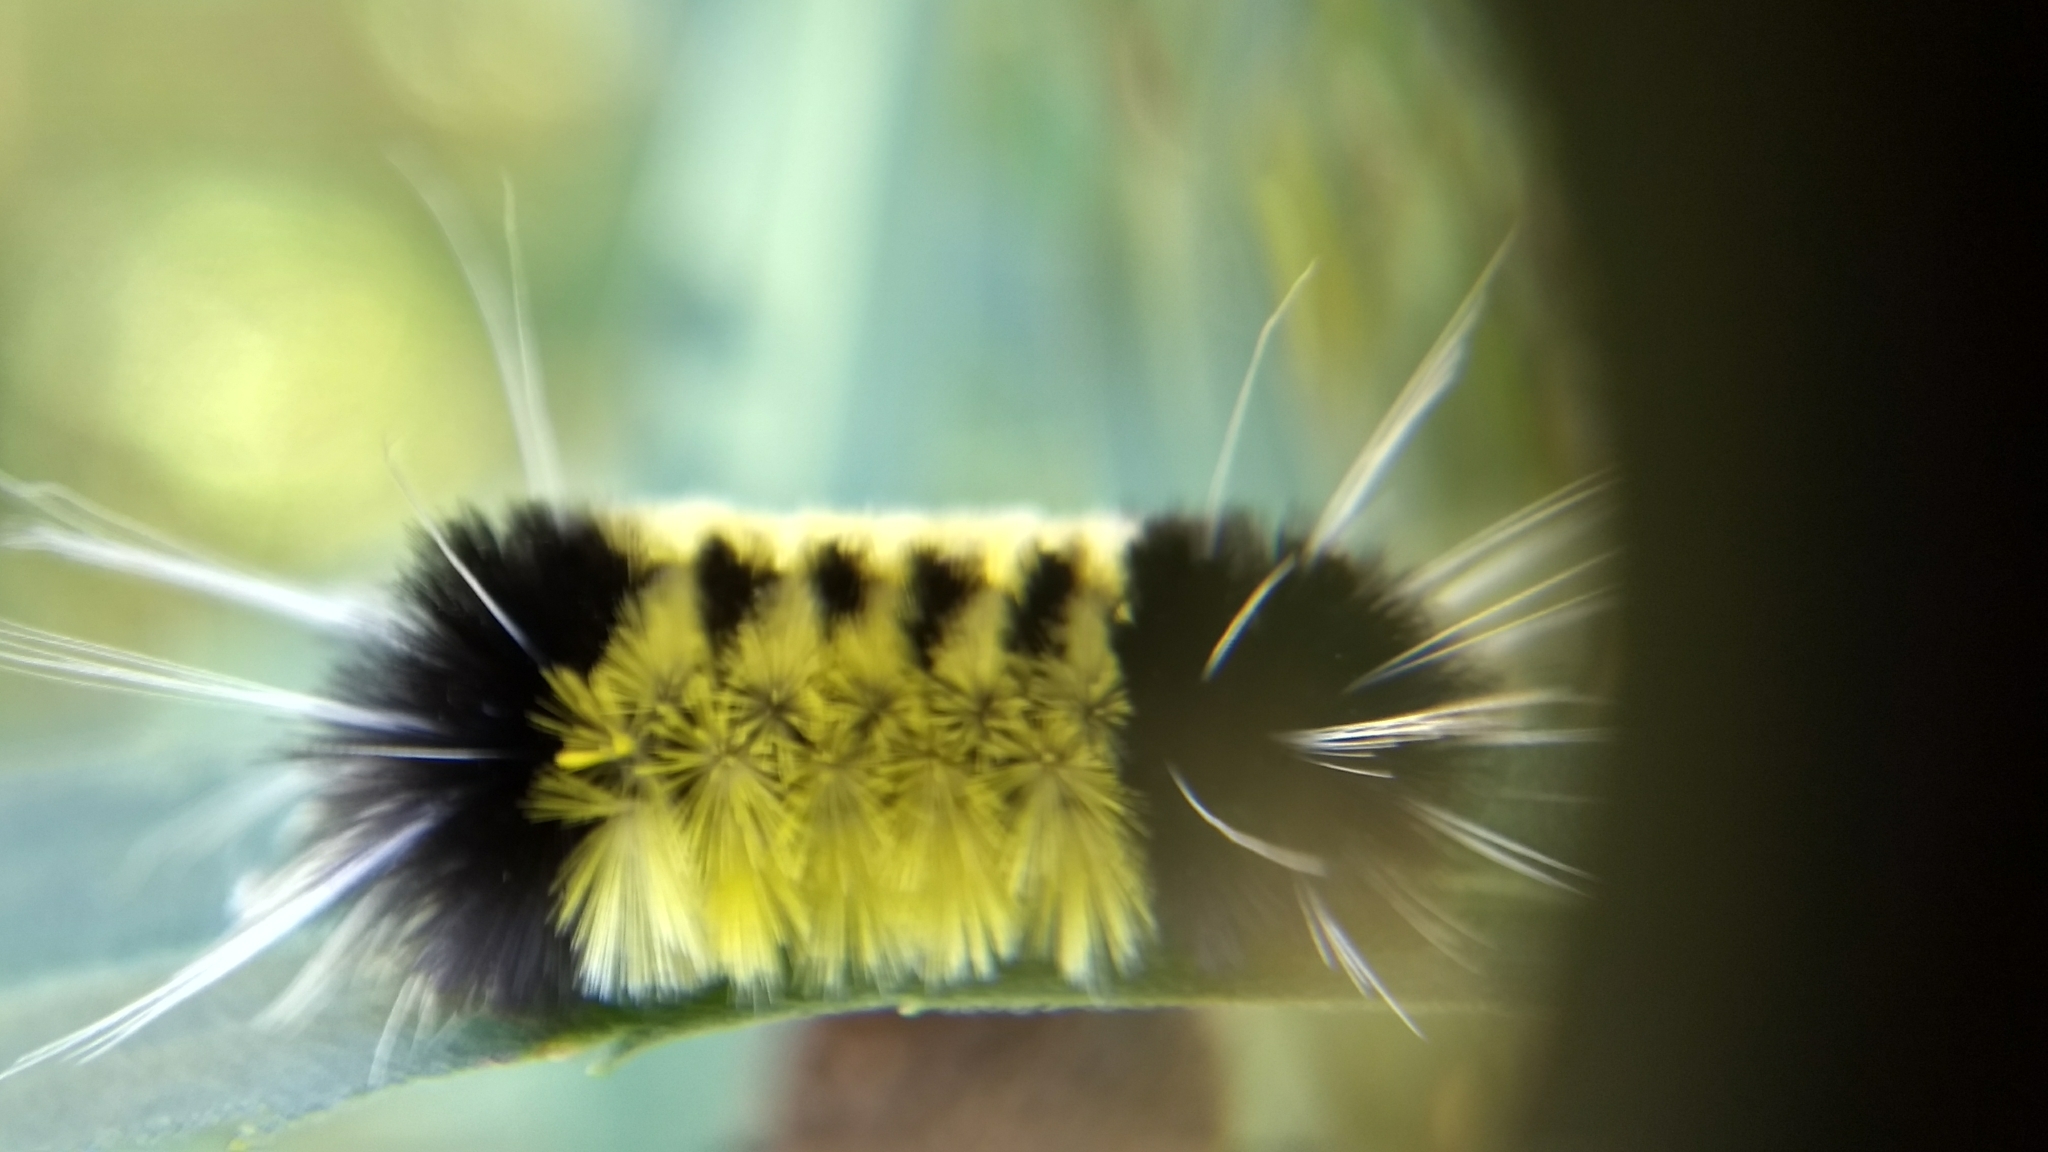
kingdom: Animalia
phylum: Arthropoda
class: Insecta
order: Lepidoptera
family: Erebidae
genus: Lophocampa
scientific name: Lophocampa maculata
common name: Spotted tussock moth
